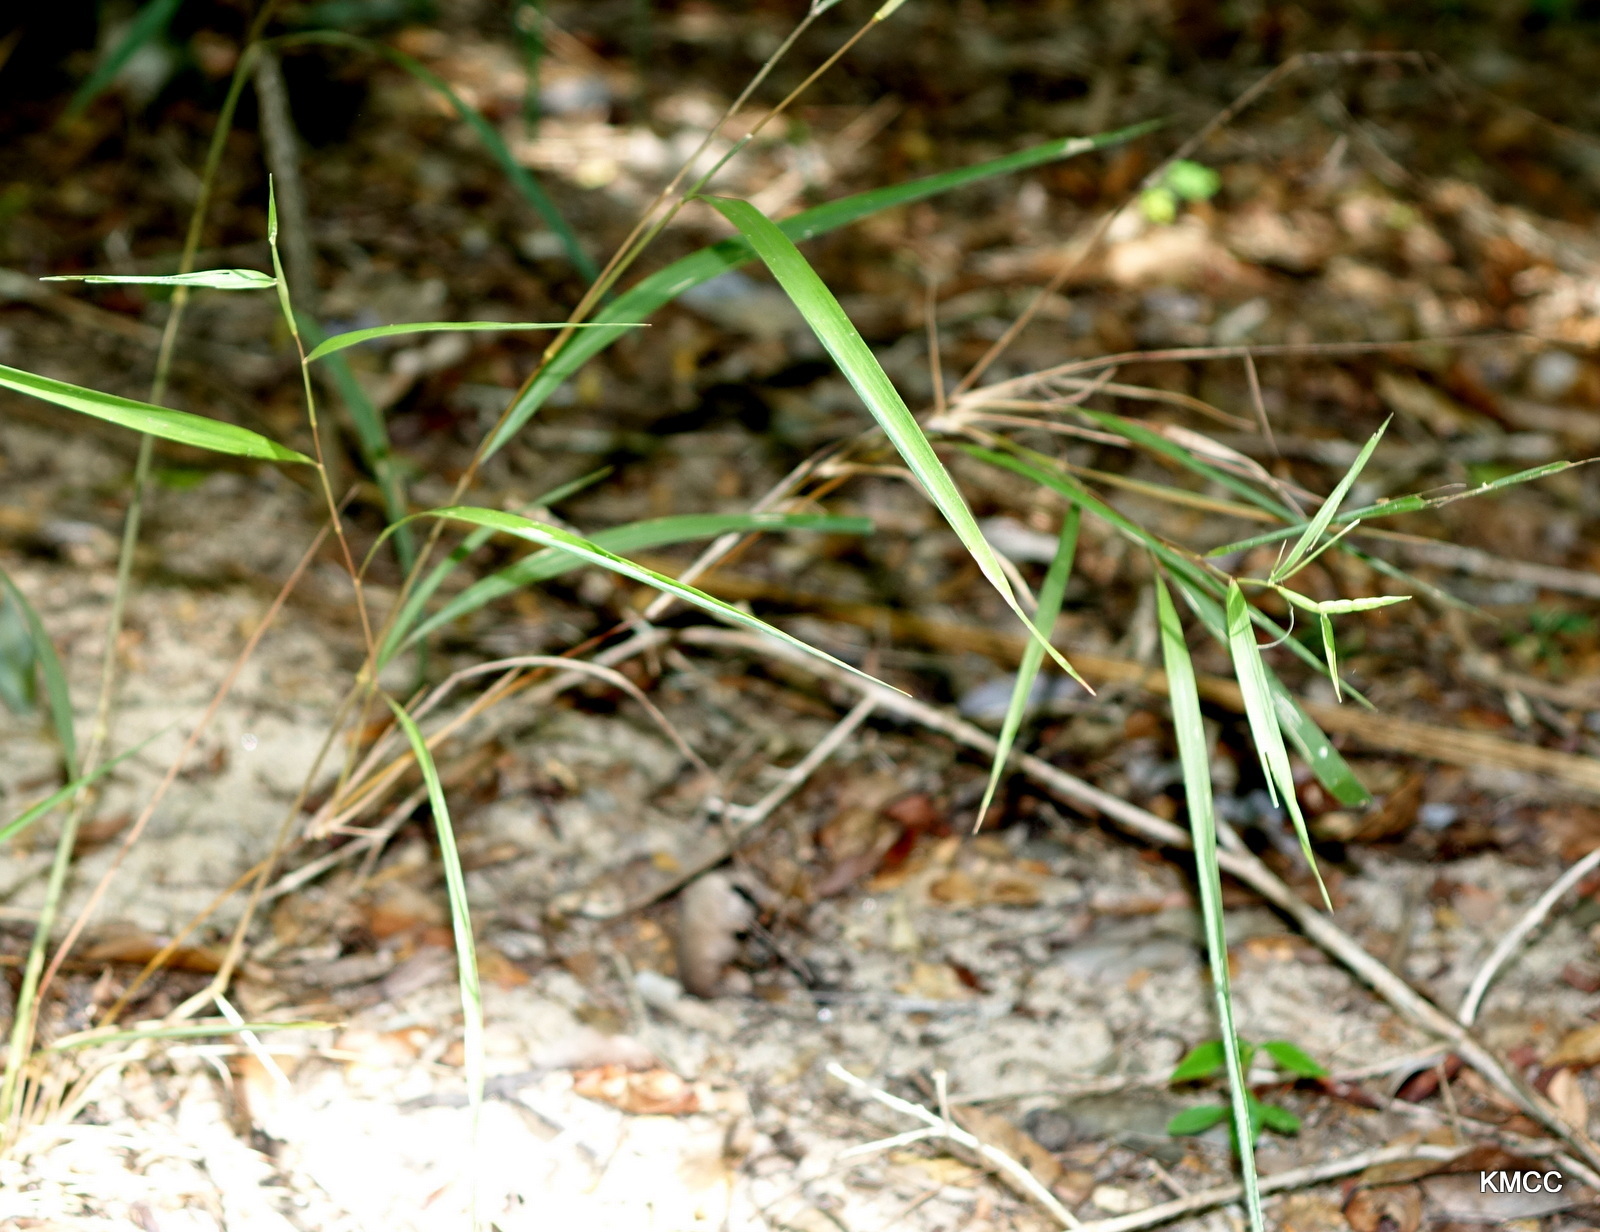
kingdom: Plantae
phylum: Tracheophyta
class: Liliopsida
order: Poales
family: Poaceae
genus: Lepturus
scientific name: Lepturus repens
